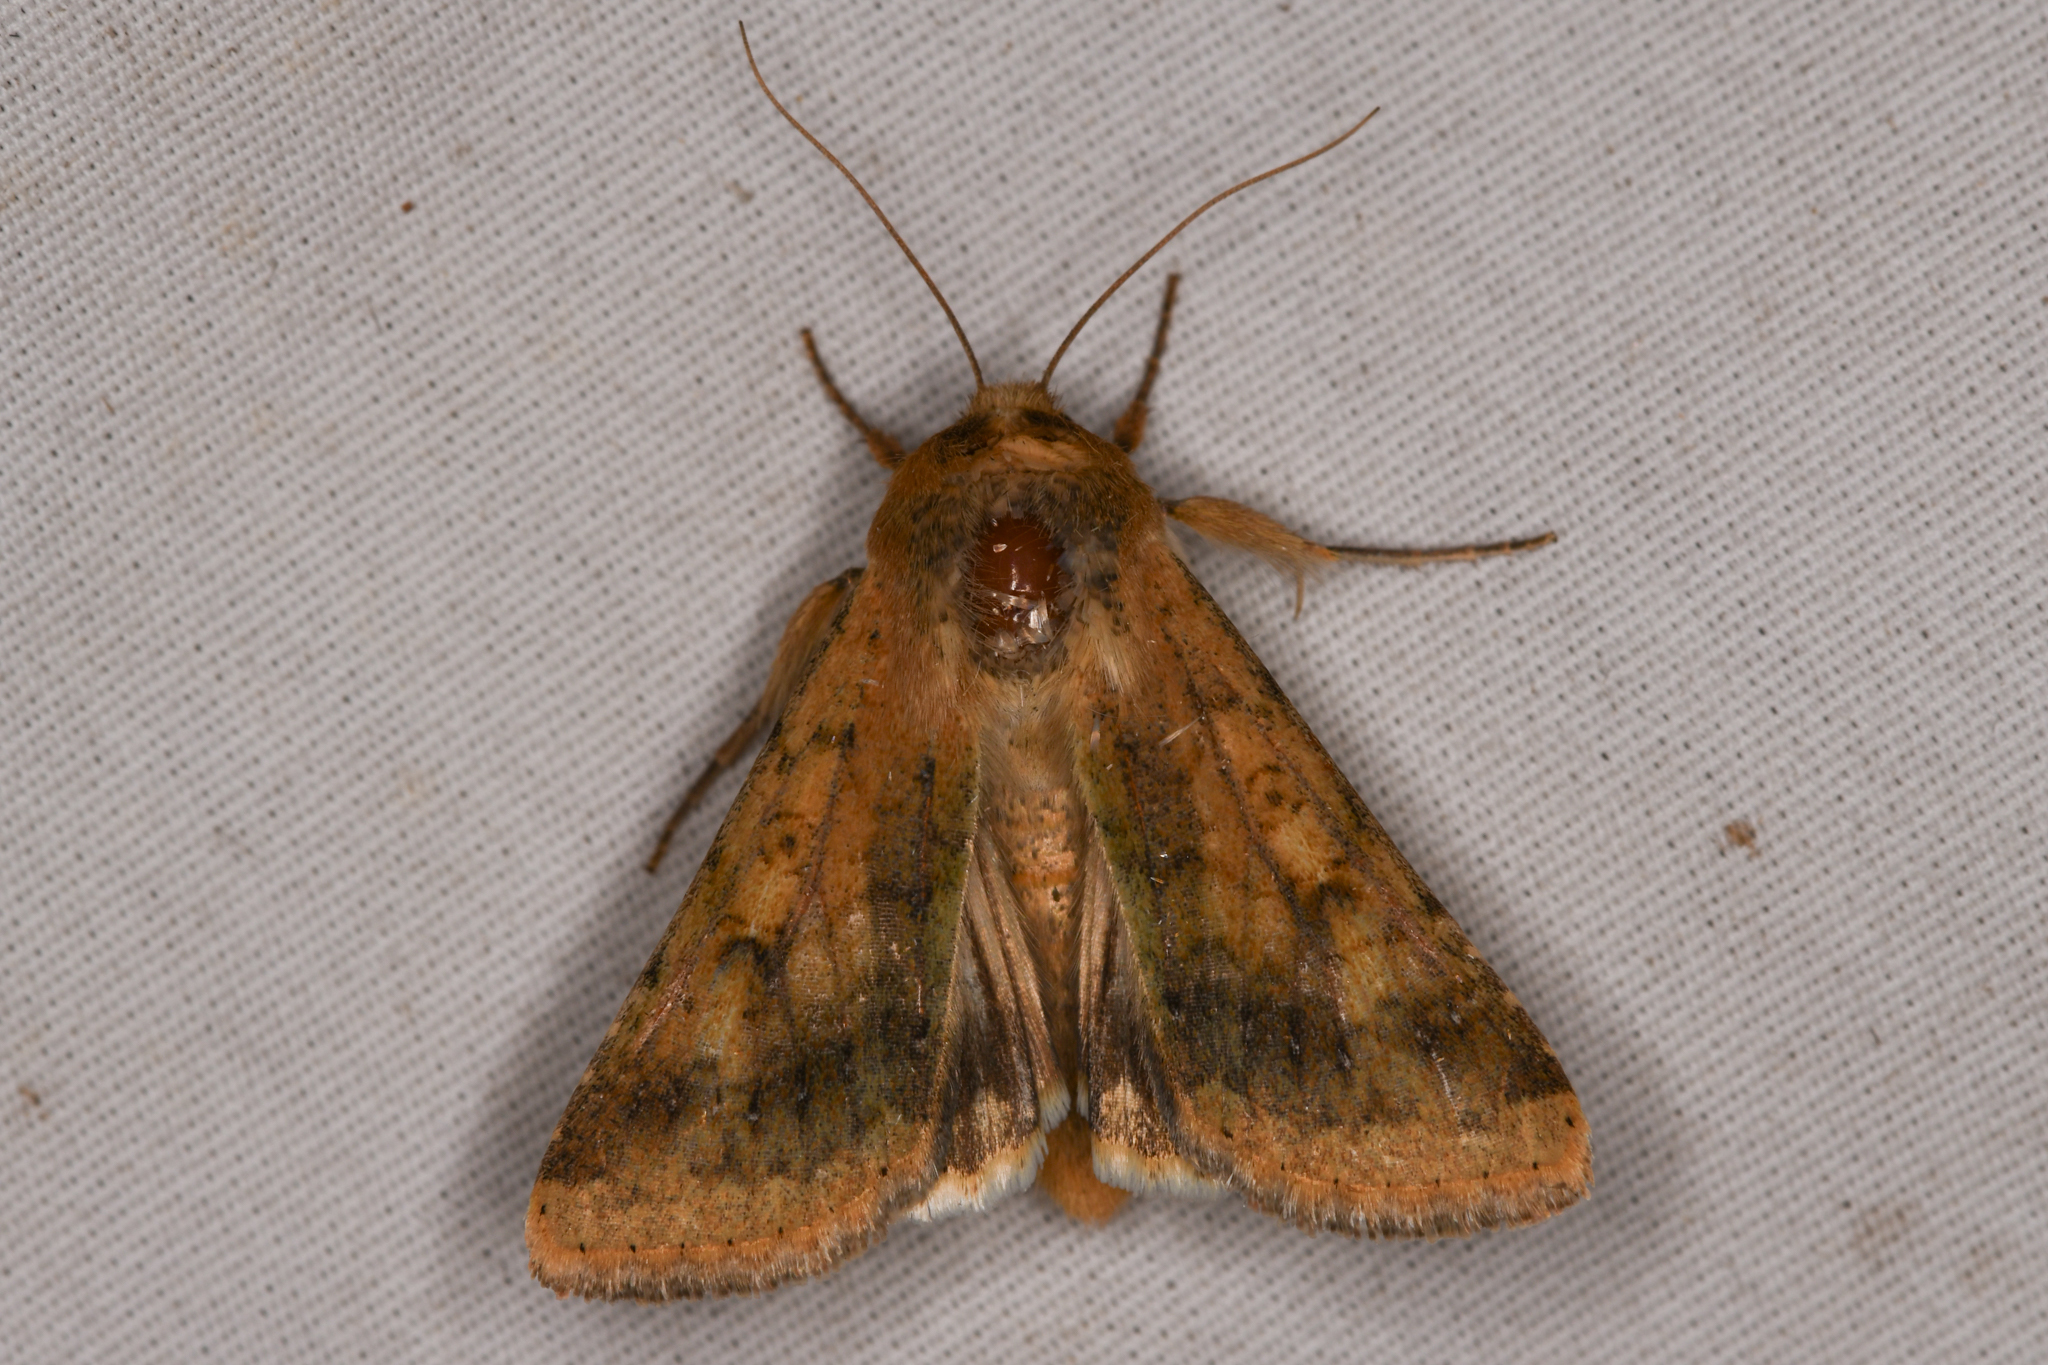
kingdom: Animalia
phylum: Arthropoda
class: Insecta
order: Lepidoptera
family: Noctuidae
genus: Helicoverpa
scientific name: Helicoverpa zea
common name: Bollworm
